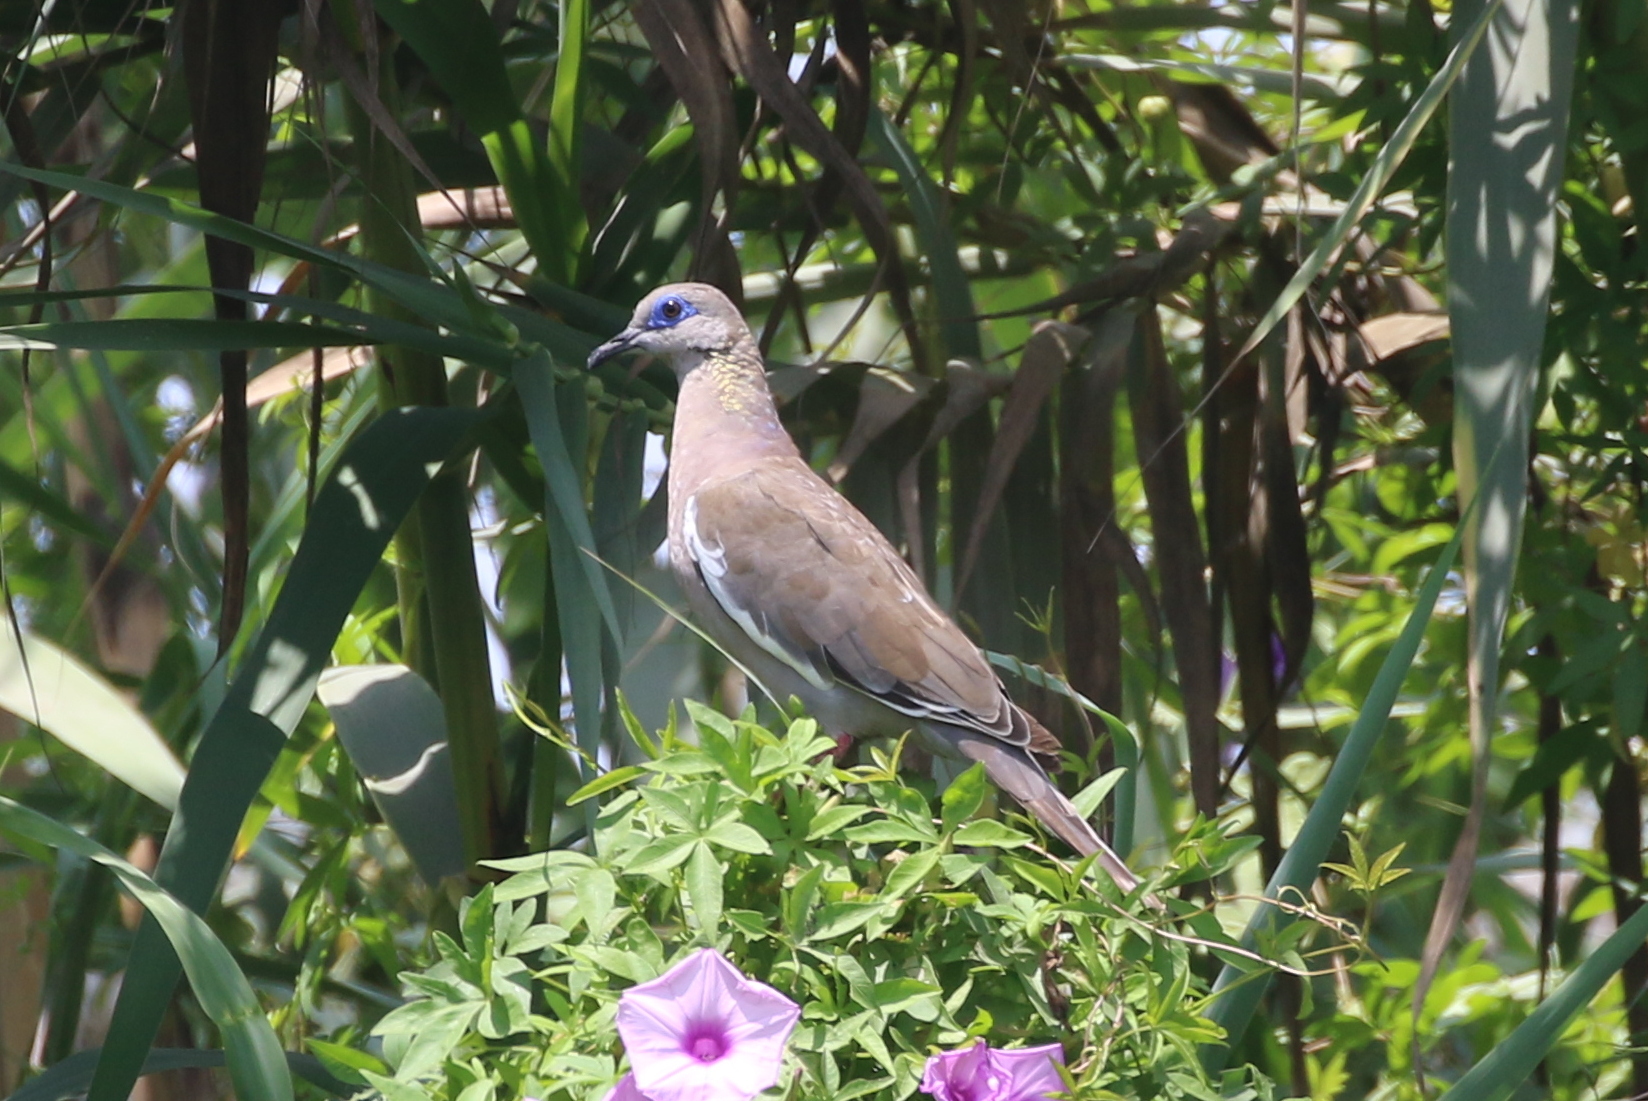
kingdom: Animalia
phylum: Chordata
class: Aves
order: Columbiformes
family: Columbidae
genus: Zenaida
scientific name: Zenaida meloda
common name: West peruvian dove
